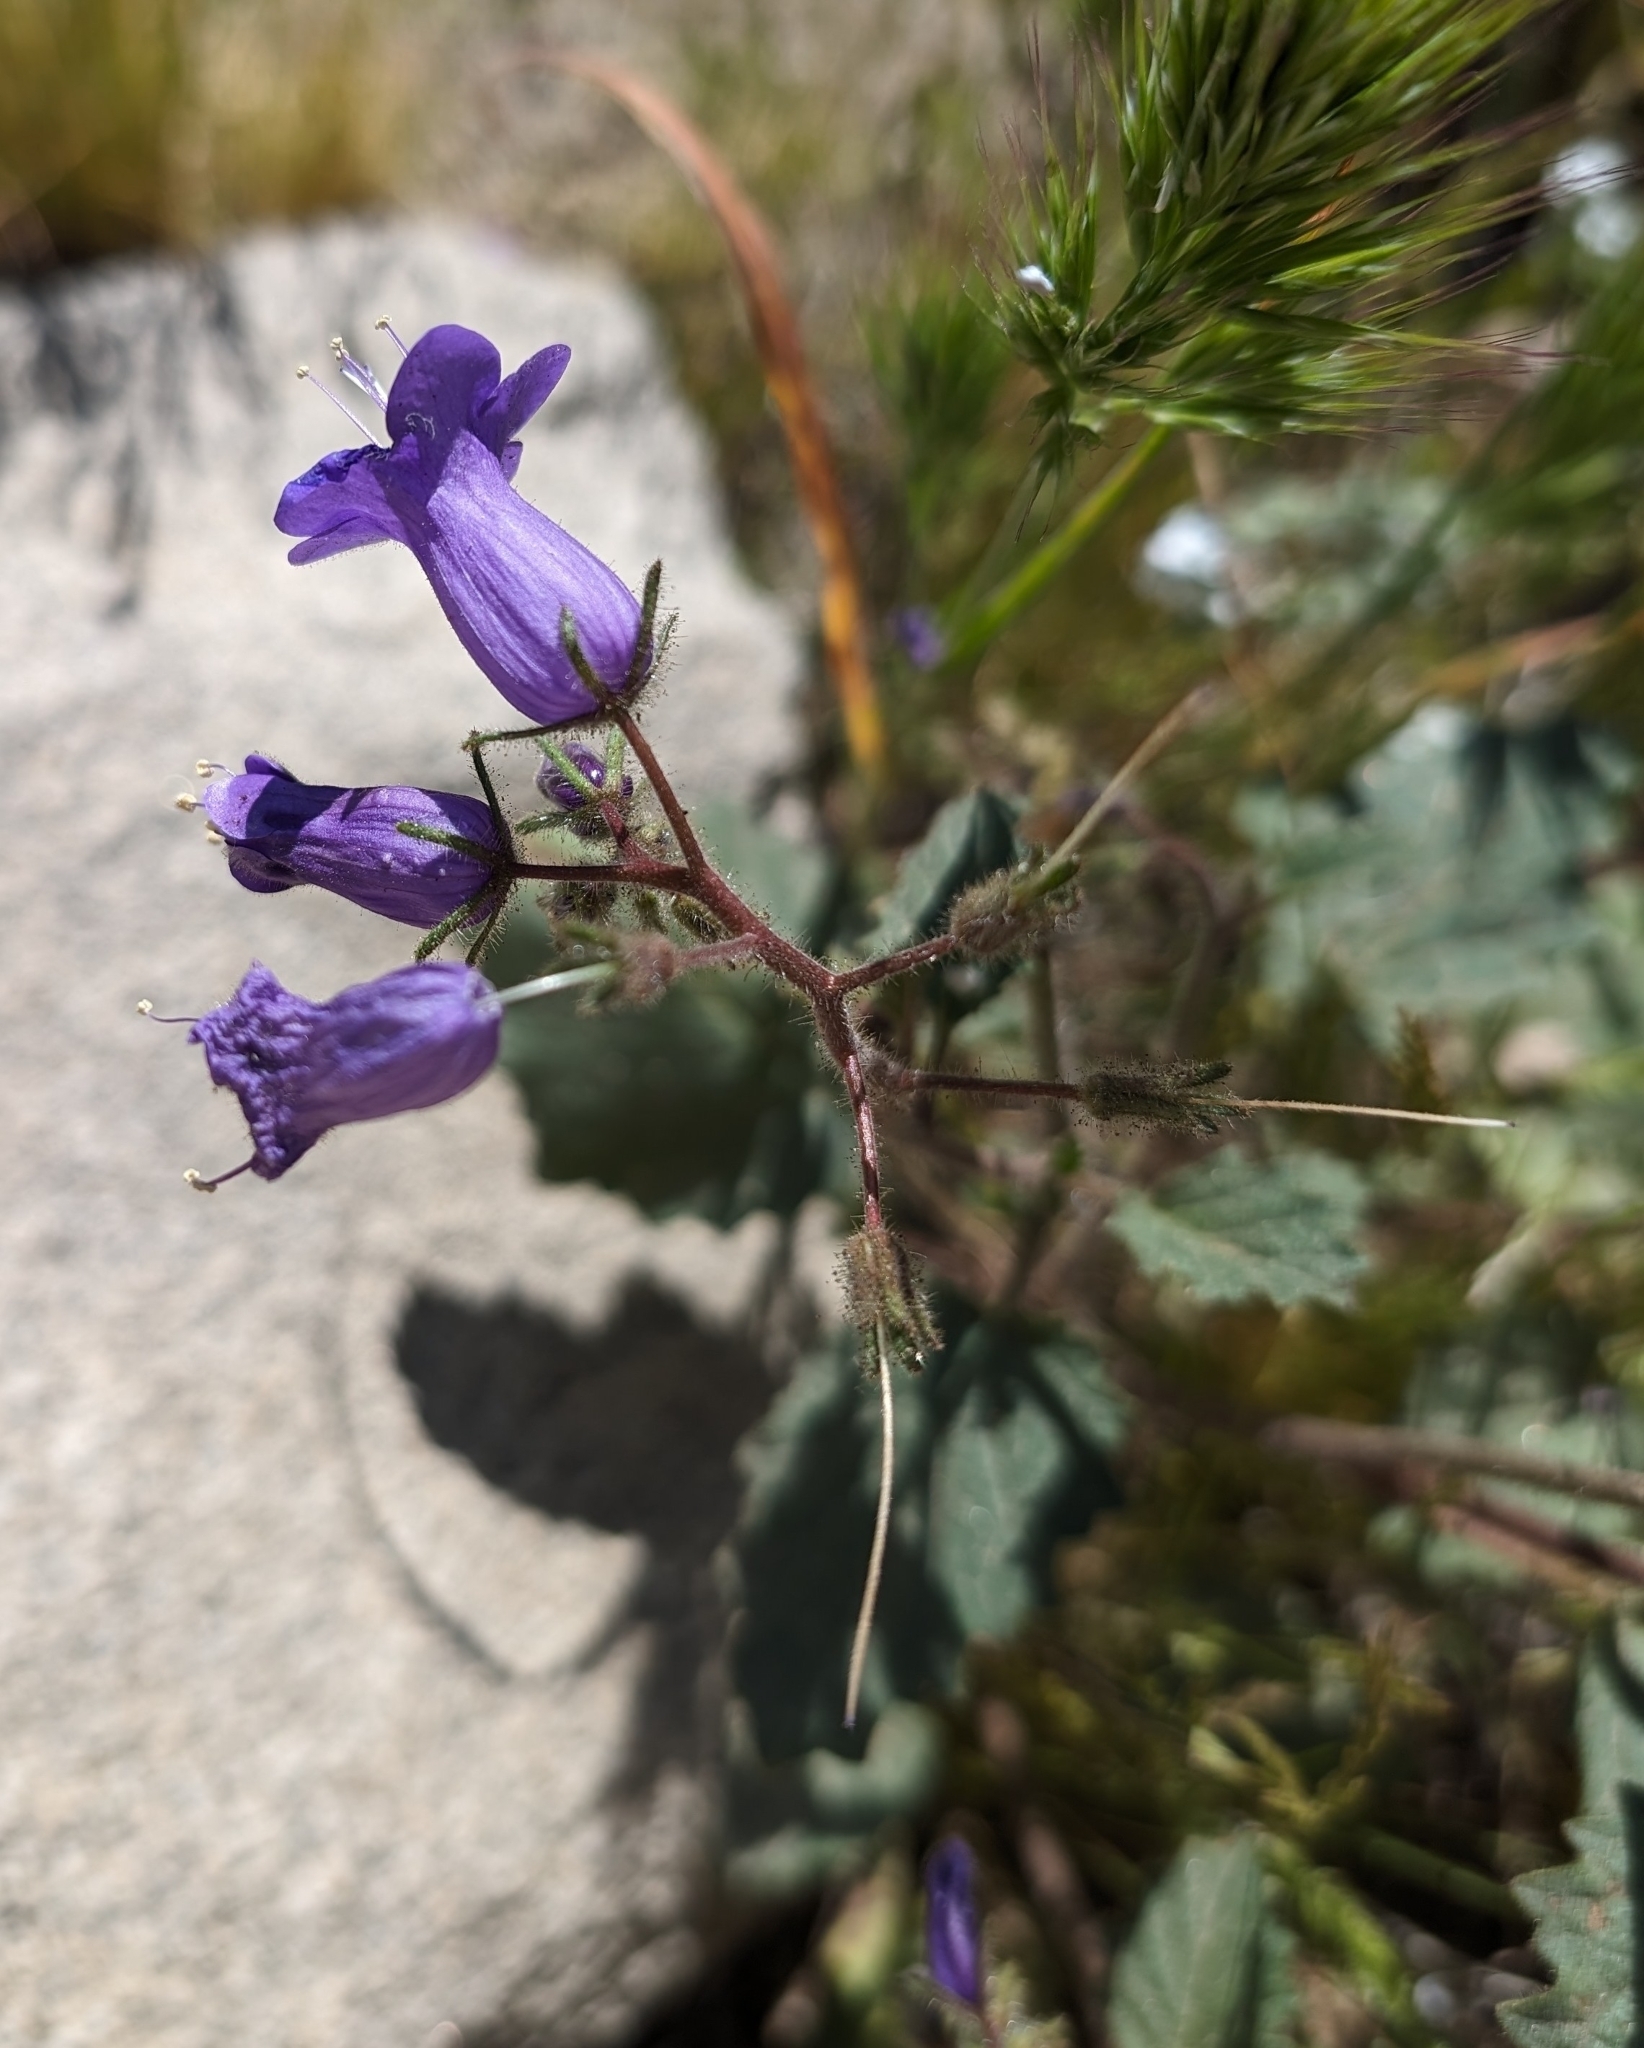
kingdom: Plantae
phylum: Tracheophyta
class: Magnoliopsida
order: Boraginales
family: Hydrophyllaceae
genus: Phacelia
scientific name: Phacelia minor
